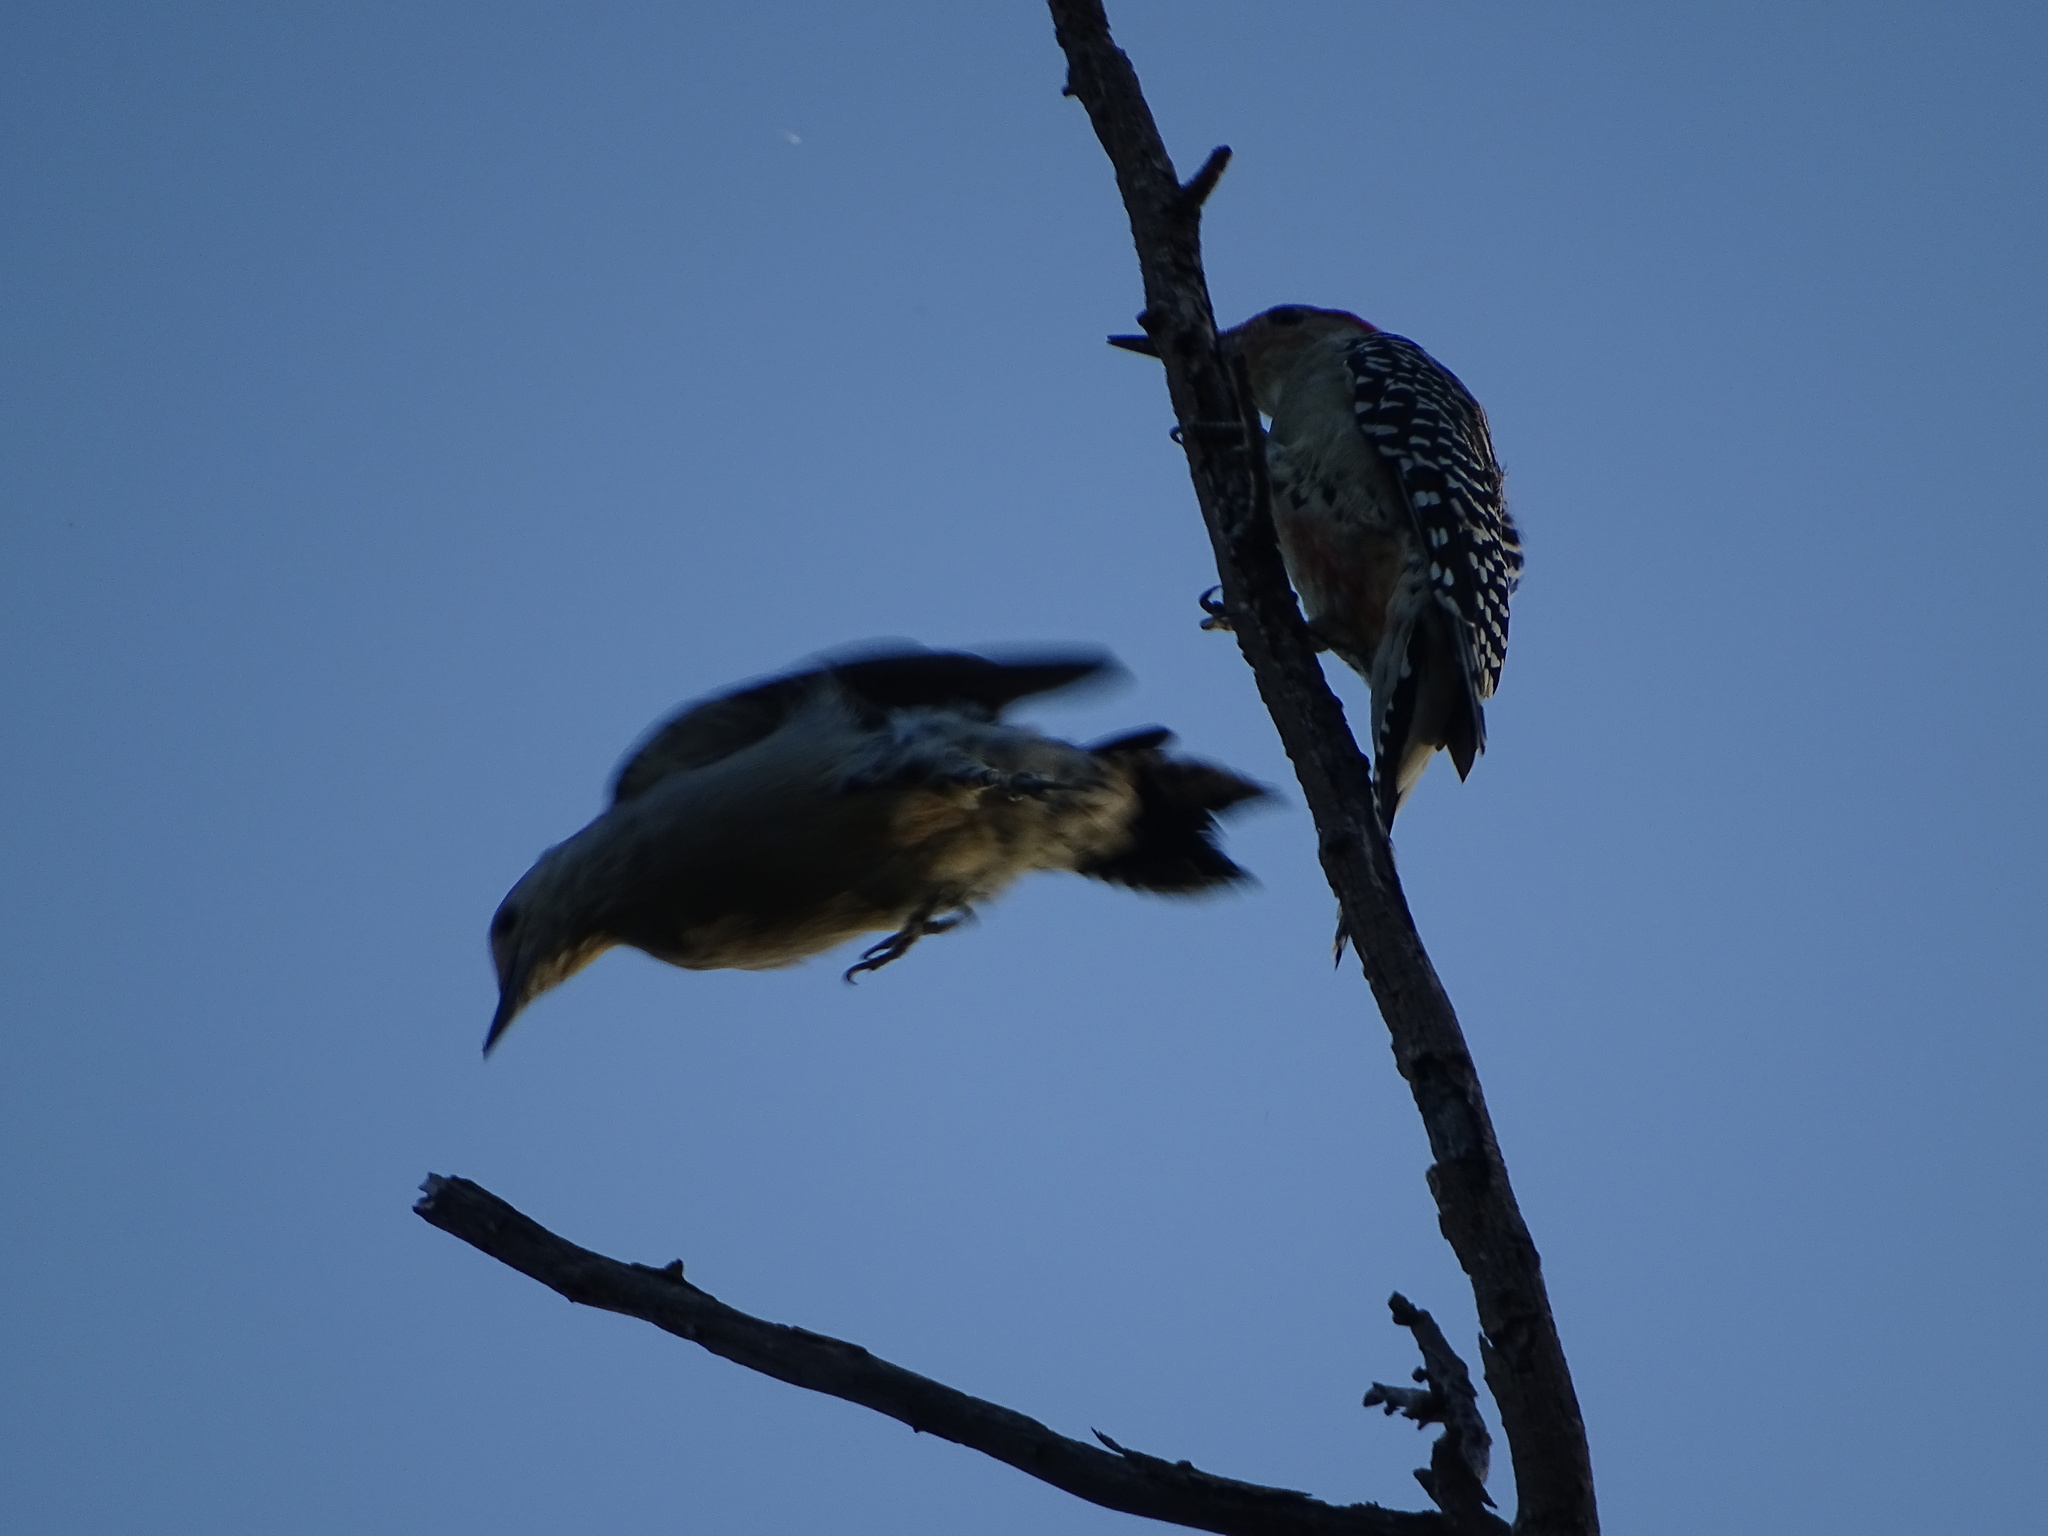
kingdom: Animalia
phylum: Chordata
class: Aves
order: Piciformes
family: Picidae
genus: Melanerpes
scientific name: Melanerpes carolinus
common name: Red-bellied woodpecker
